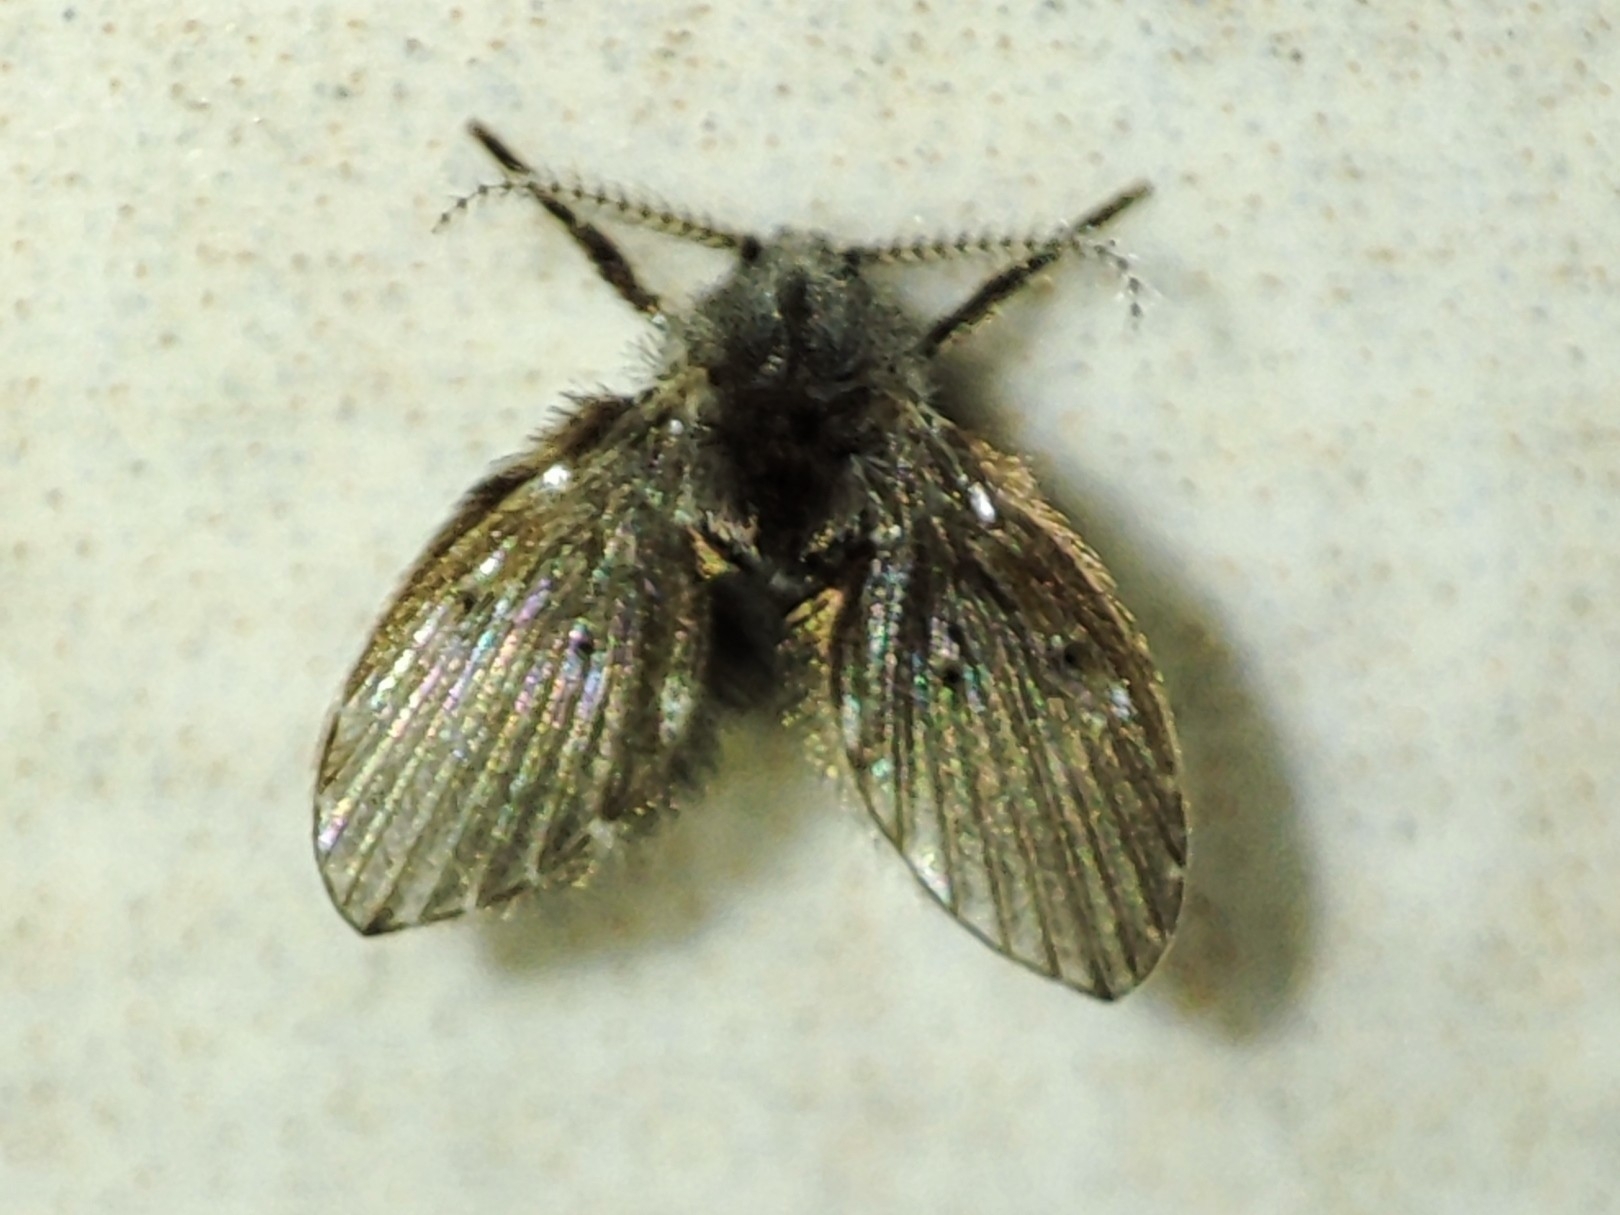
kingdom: Animalia
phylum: Arthropoda
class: Insecta
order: Diptera
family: Psychodidae
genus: Clogmia
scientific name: Clogmia albipunctatus
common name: White-spotted moth fly
